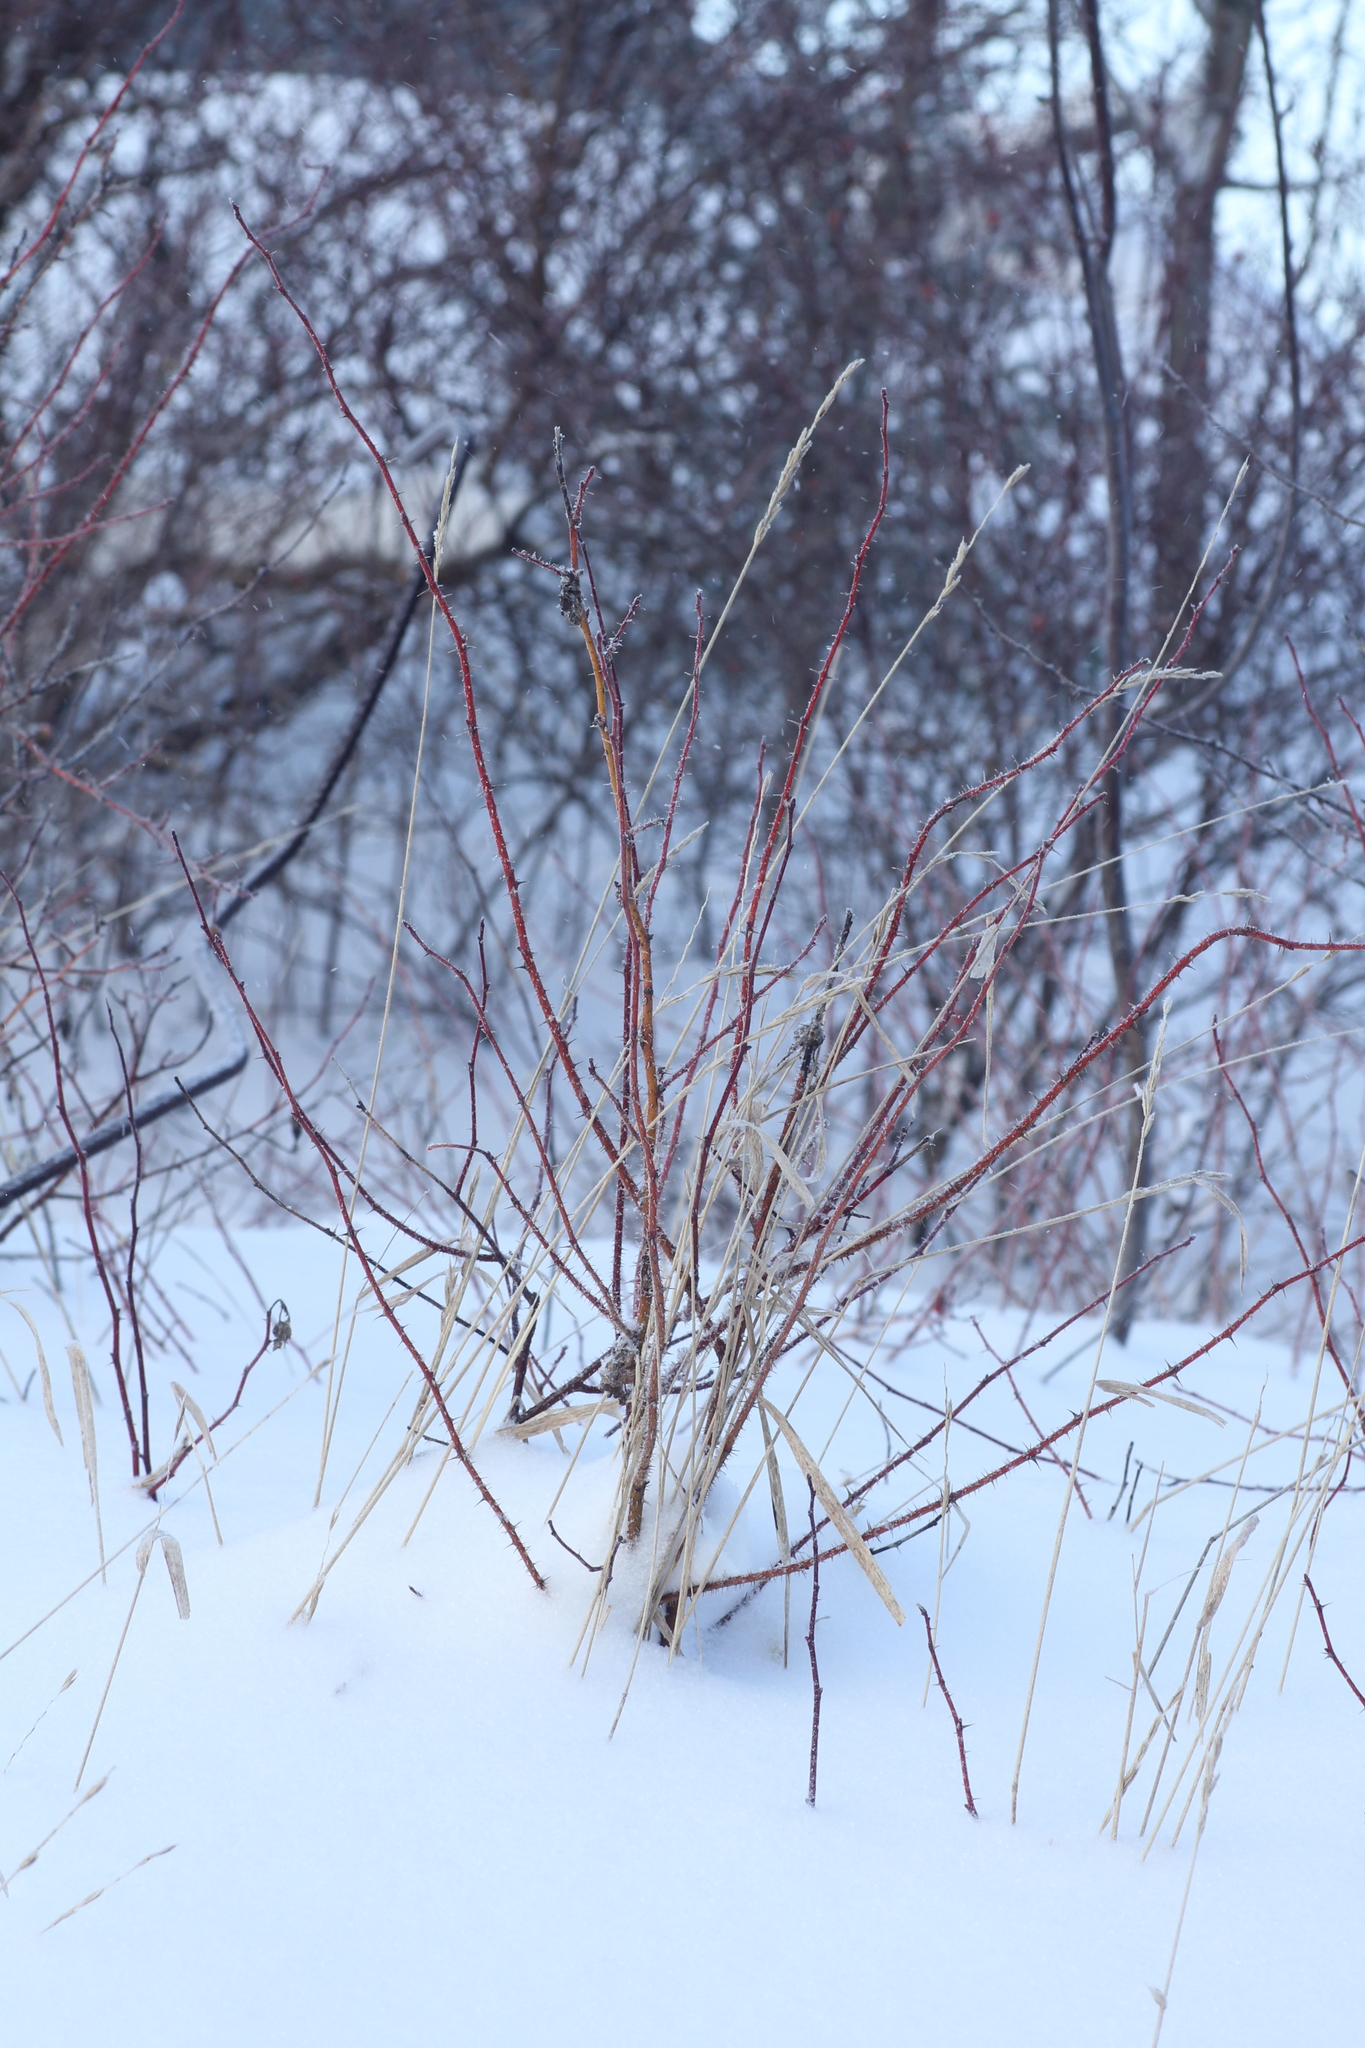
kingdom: Plantae
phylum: Tracheophyta
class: Magnoliopsida
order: Rosales
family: Rosaceae
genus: Rosa
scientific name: Rosa acicularis
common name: Prickly rose
